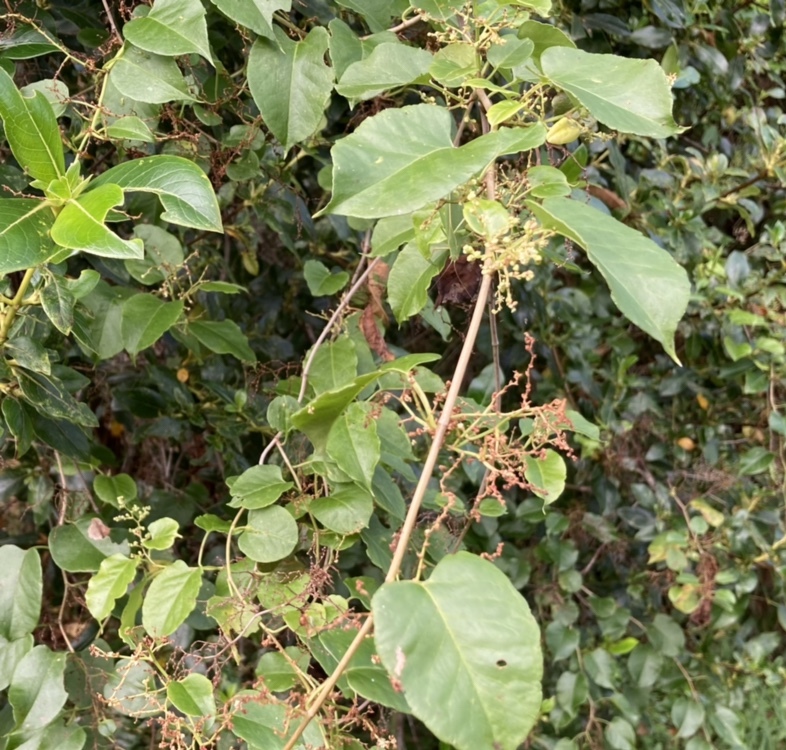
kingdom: Plantae
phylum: Tracheophyta
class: Magnoliopsida
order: Caryophyllales
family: Polygonaceae
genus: Muehlenbeckia
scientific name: Muehlenbeckia australis
